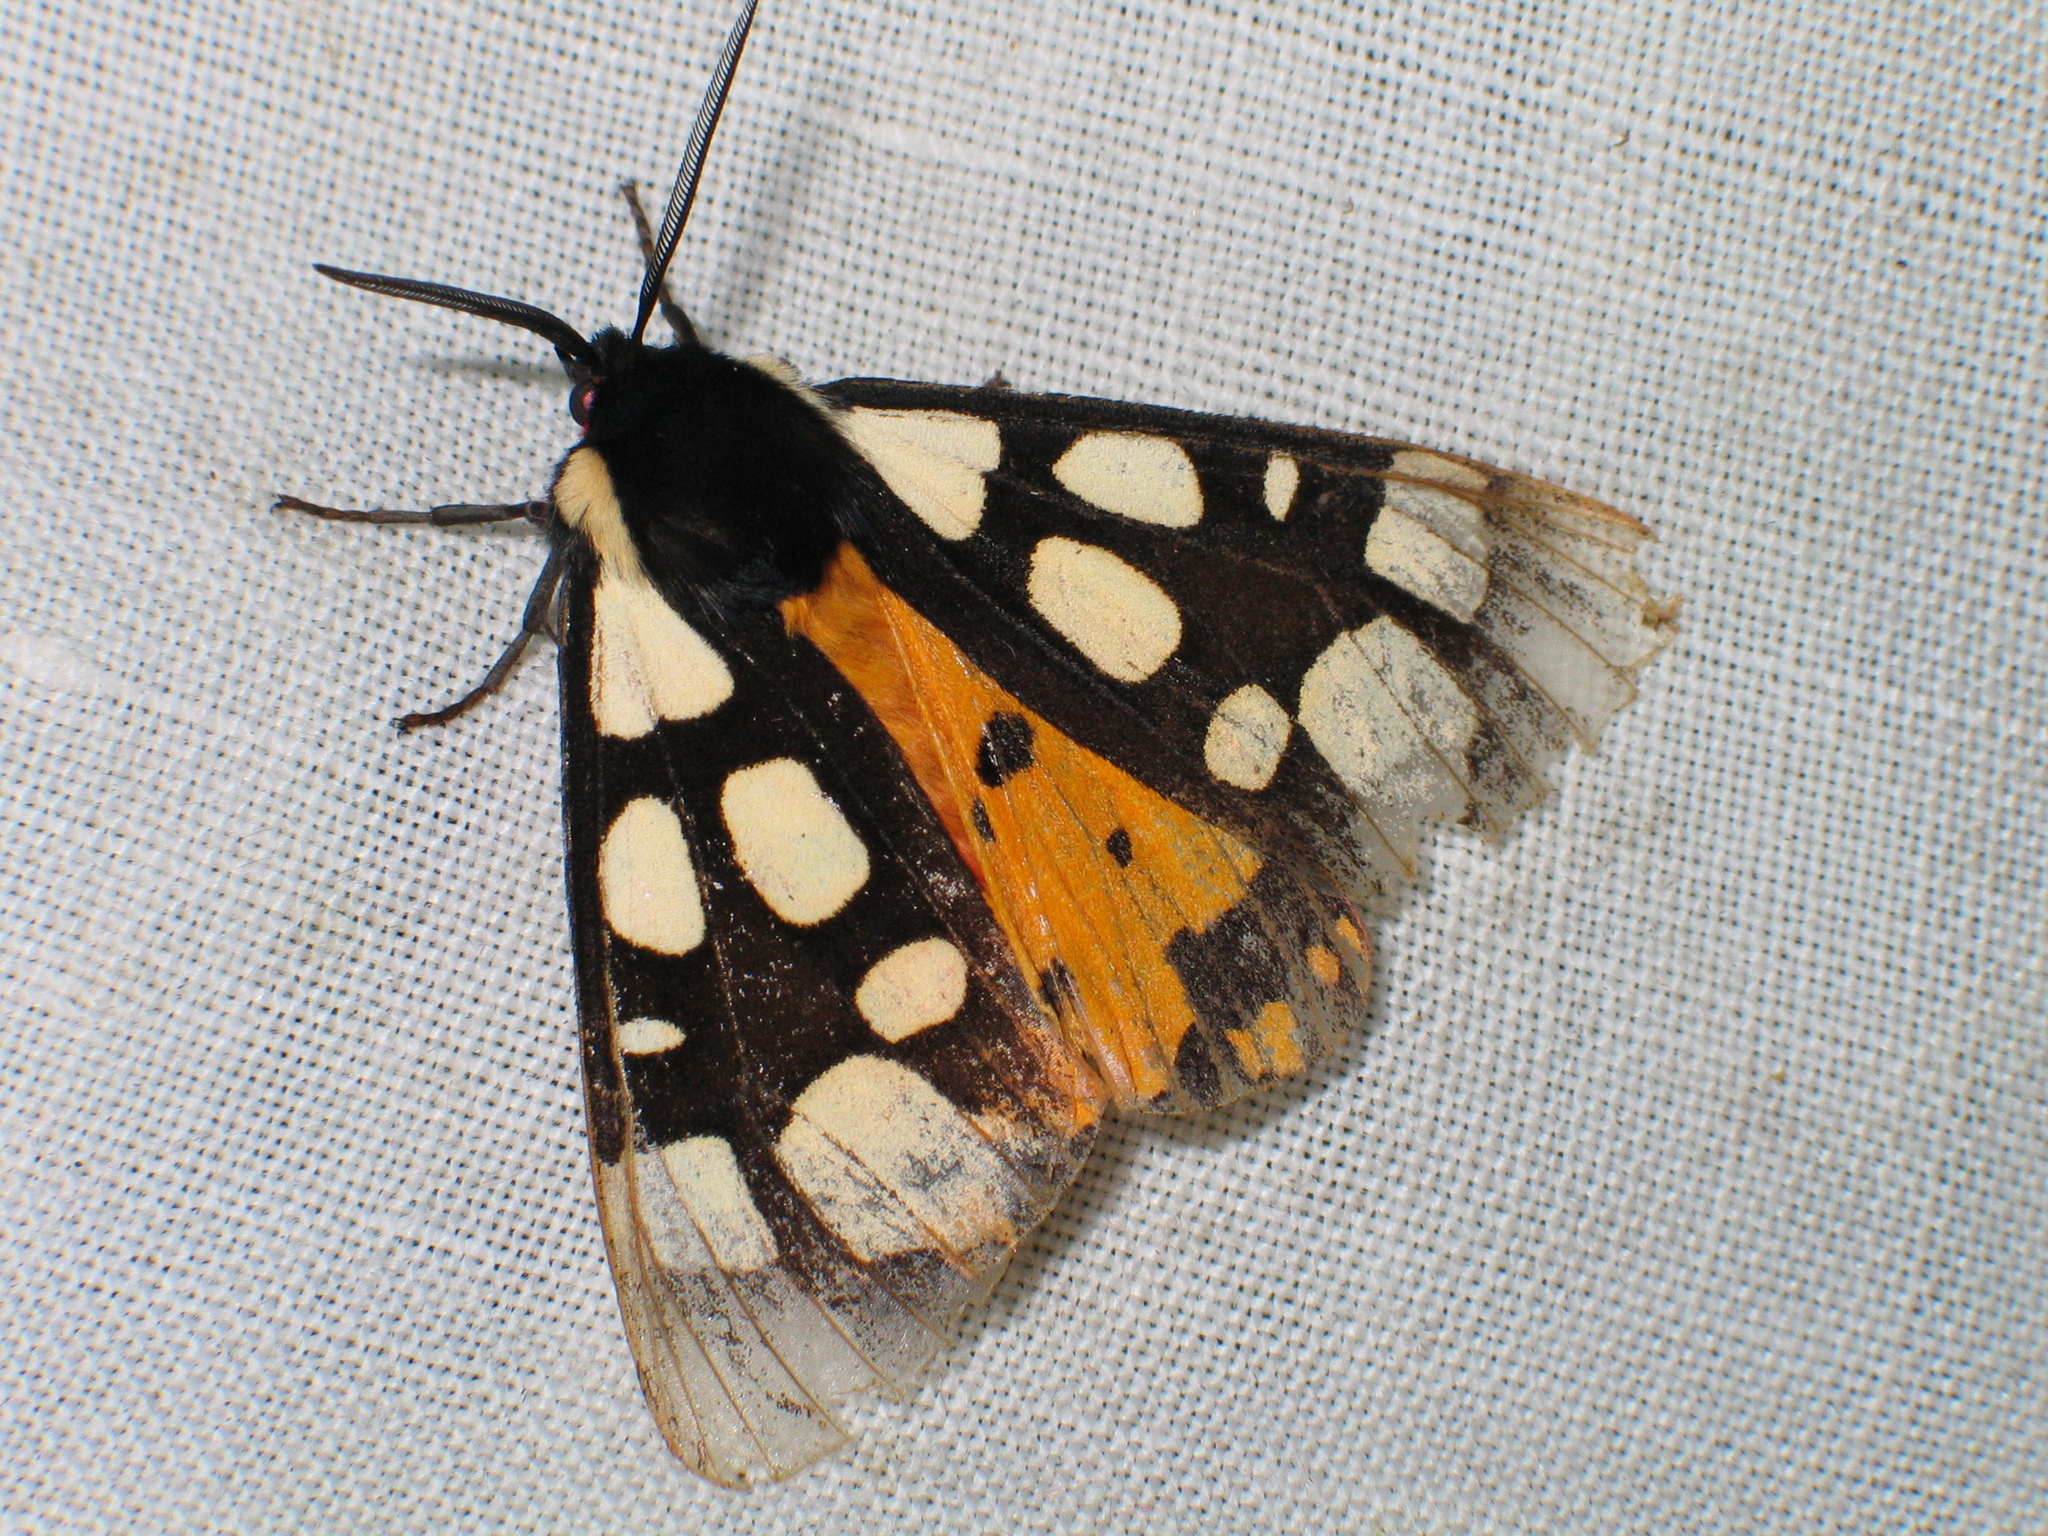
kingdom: Animalia
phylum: Arthropoda
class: Insecta
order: Lepidoptera
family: Erebidae
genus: Epicallia
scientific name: Epicallia villica
